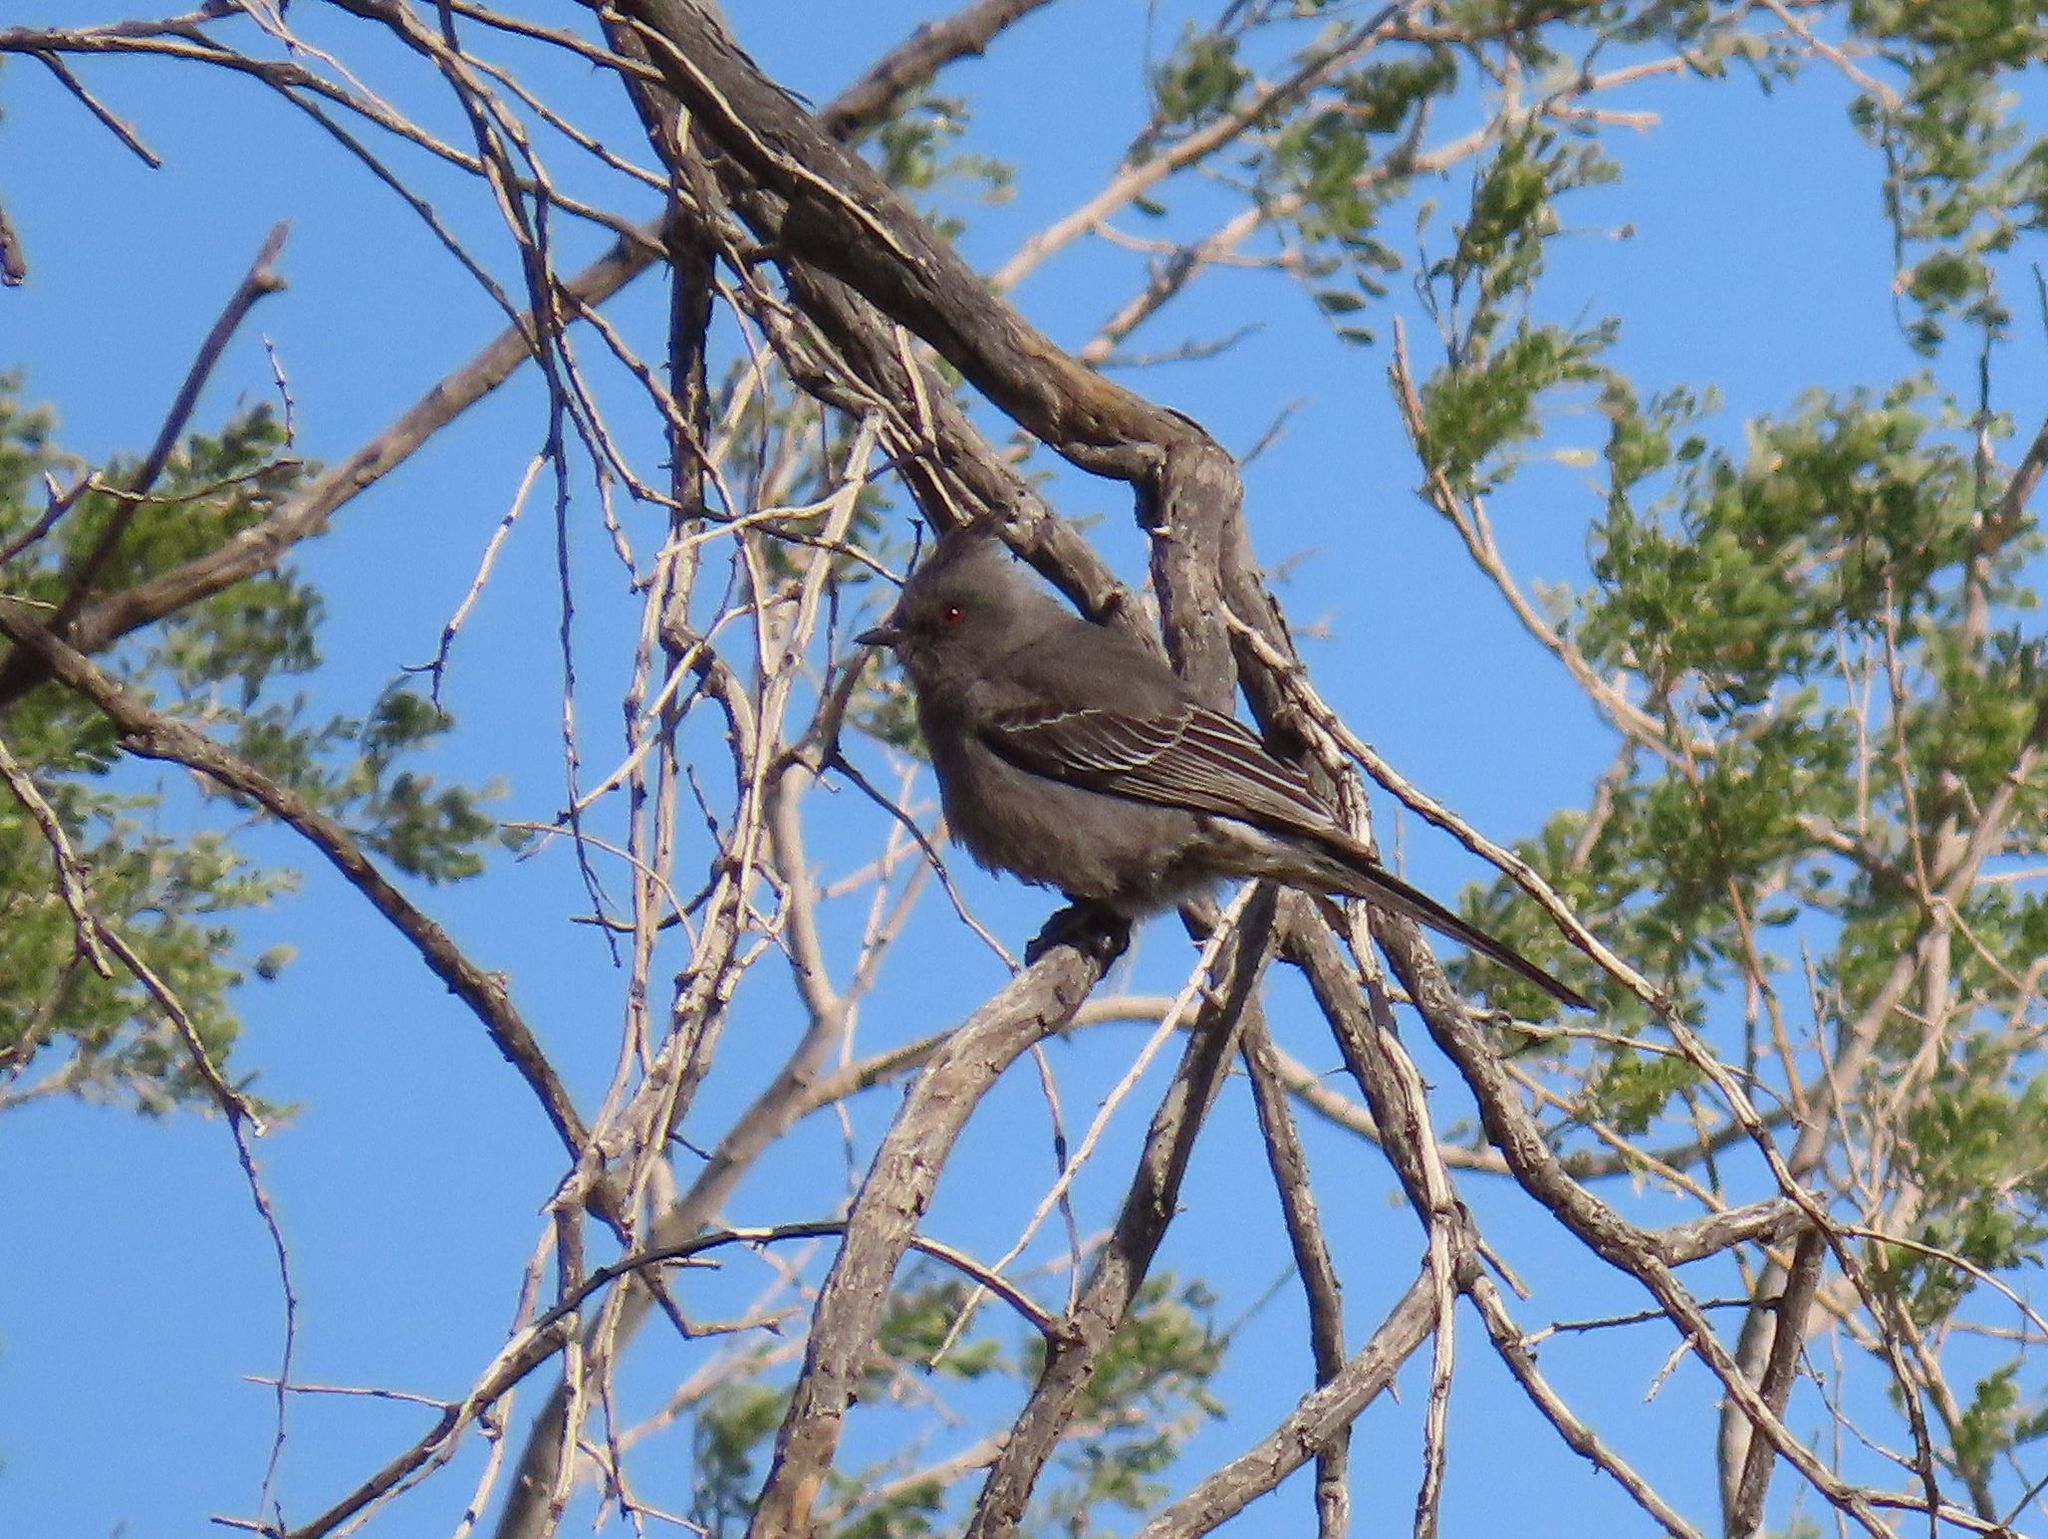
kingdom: Animalia
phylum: Chordata
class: Aves
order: Passeriformes
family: Ptilogonatidae
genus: Phainopepla
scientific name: Phainopepla nitens
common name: Phainopepla
